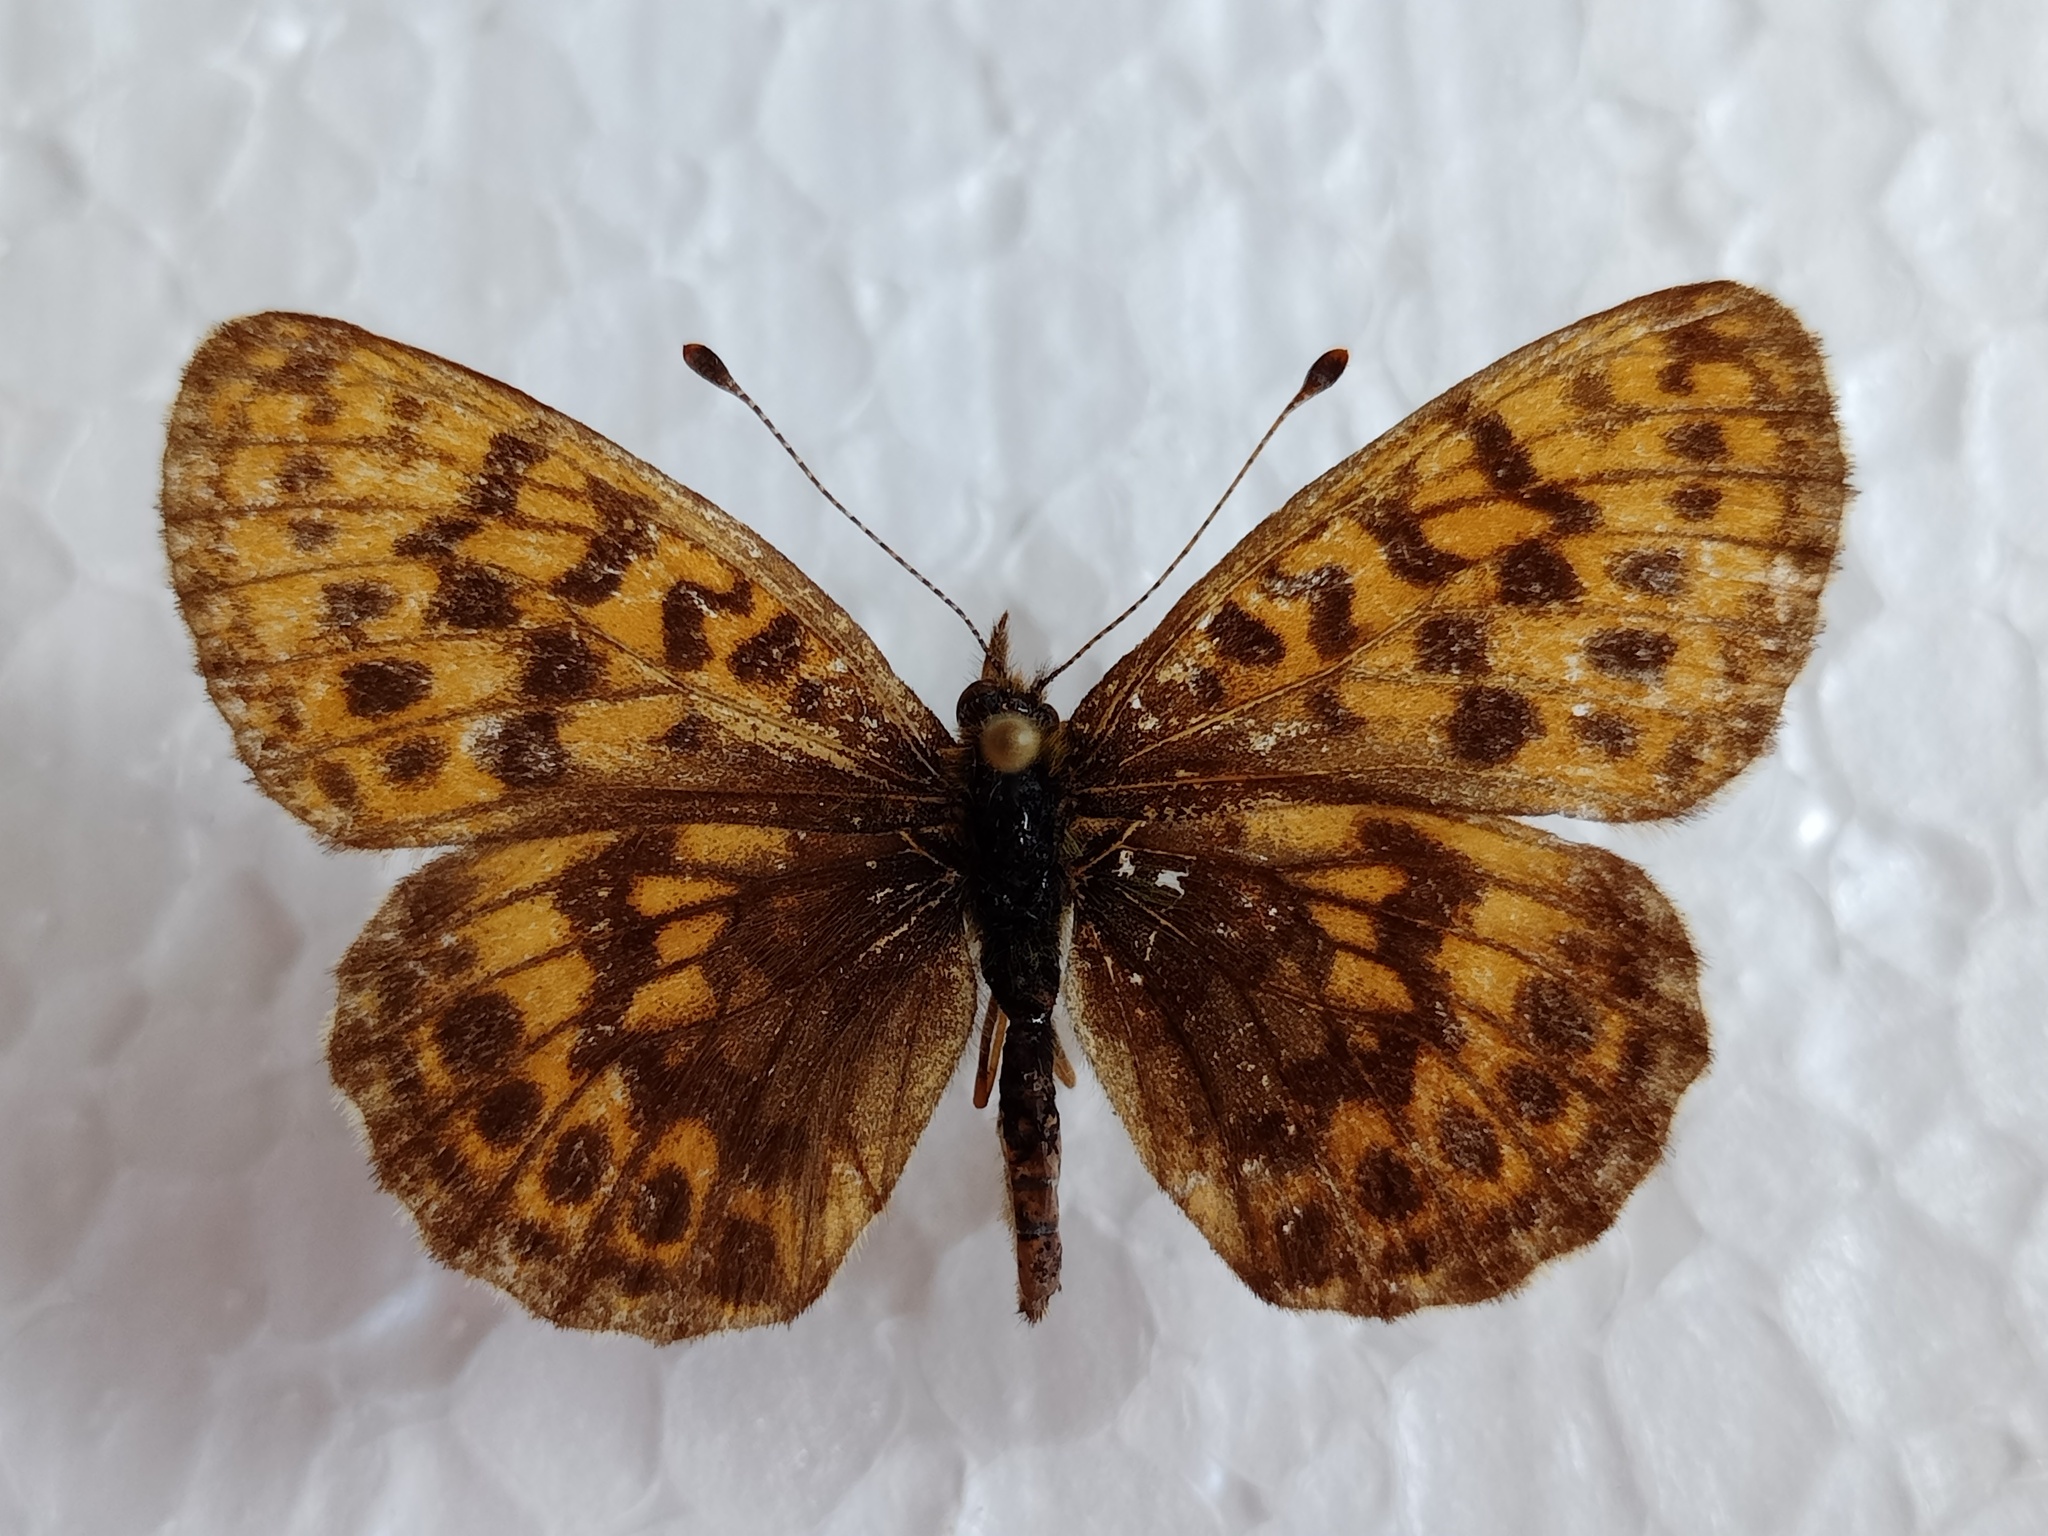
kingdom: Animalia
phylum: Arthropoda
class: Insecta
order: Lepidoptera
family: Nymphalidae
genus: Boloria
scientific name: Boloria thore
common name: Thor's fritillary
